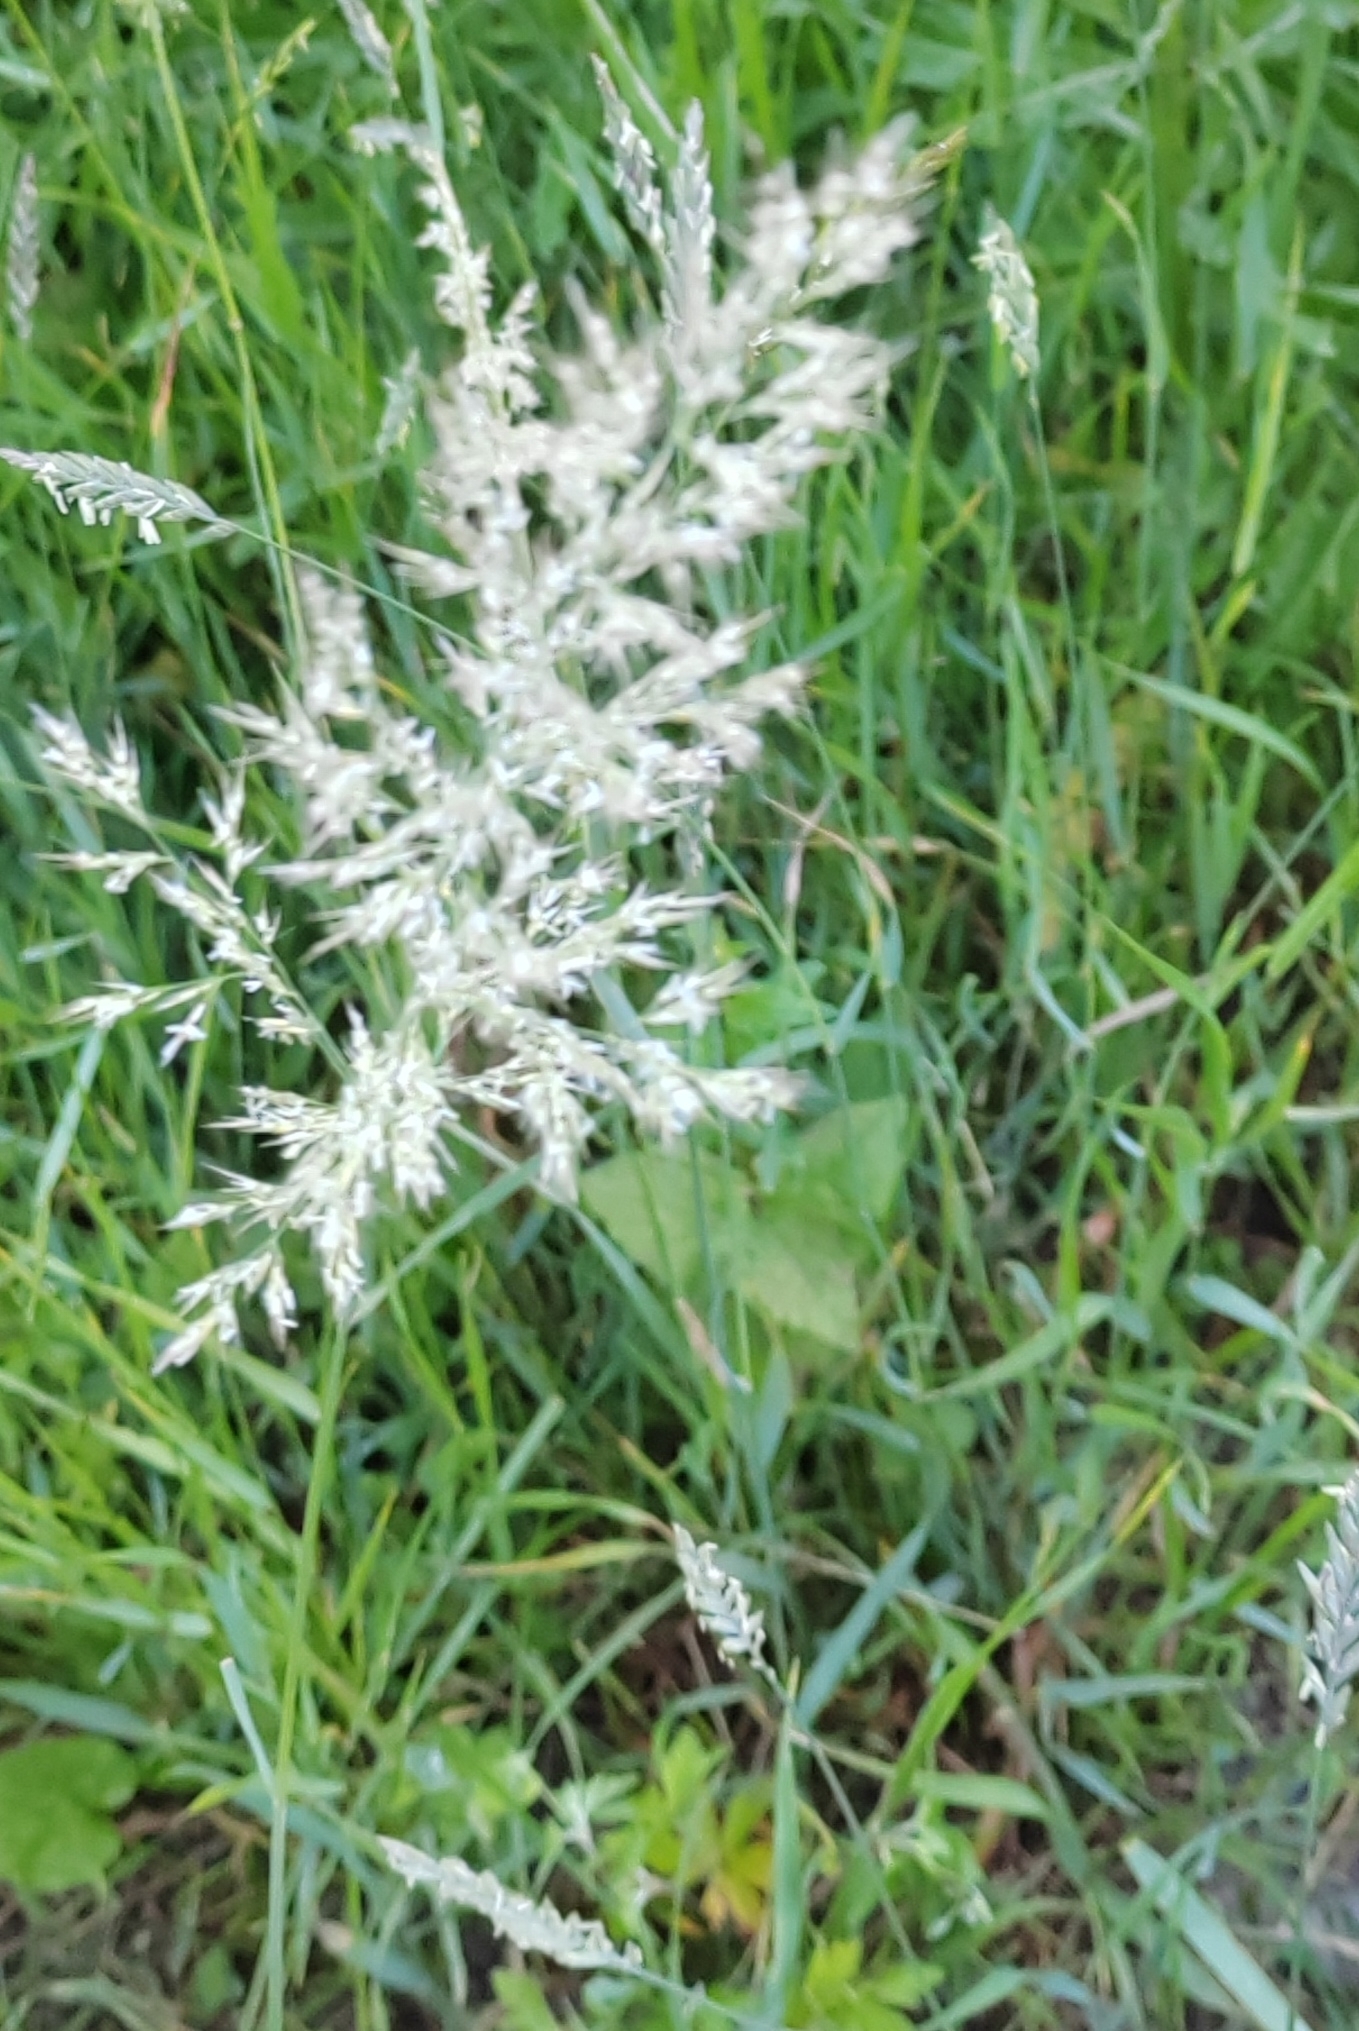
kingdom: Plantae
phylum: Tracheophyta
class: Liliopsida
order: Poales
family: Poaceae
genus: Calamagrostis
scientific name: Calamagrostis epigejos
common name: Wood small-reed
